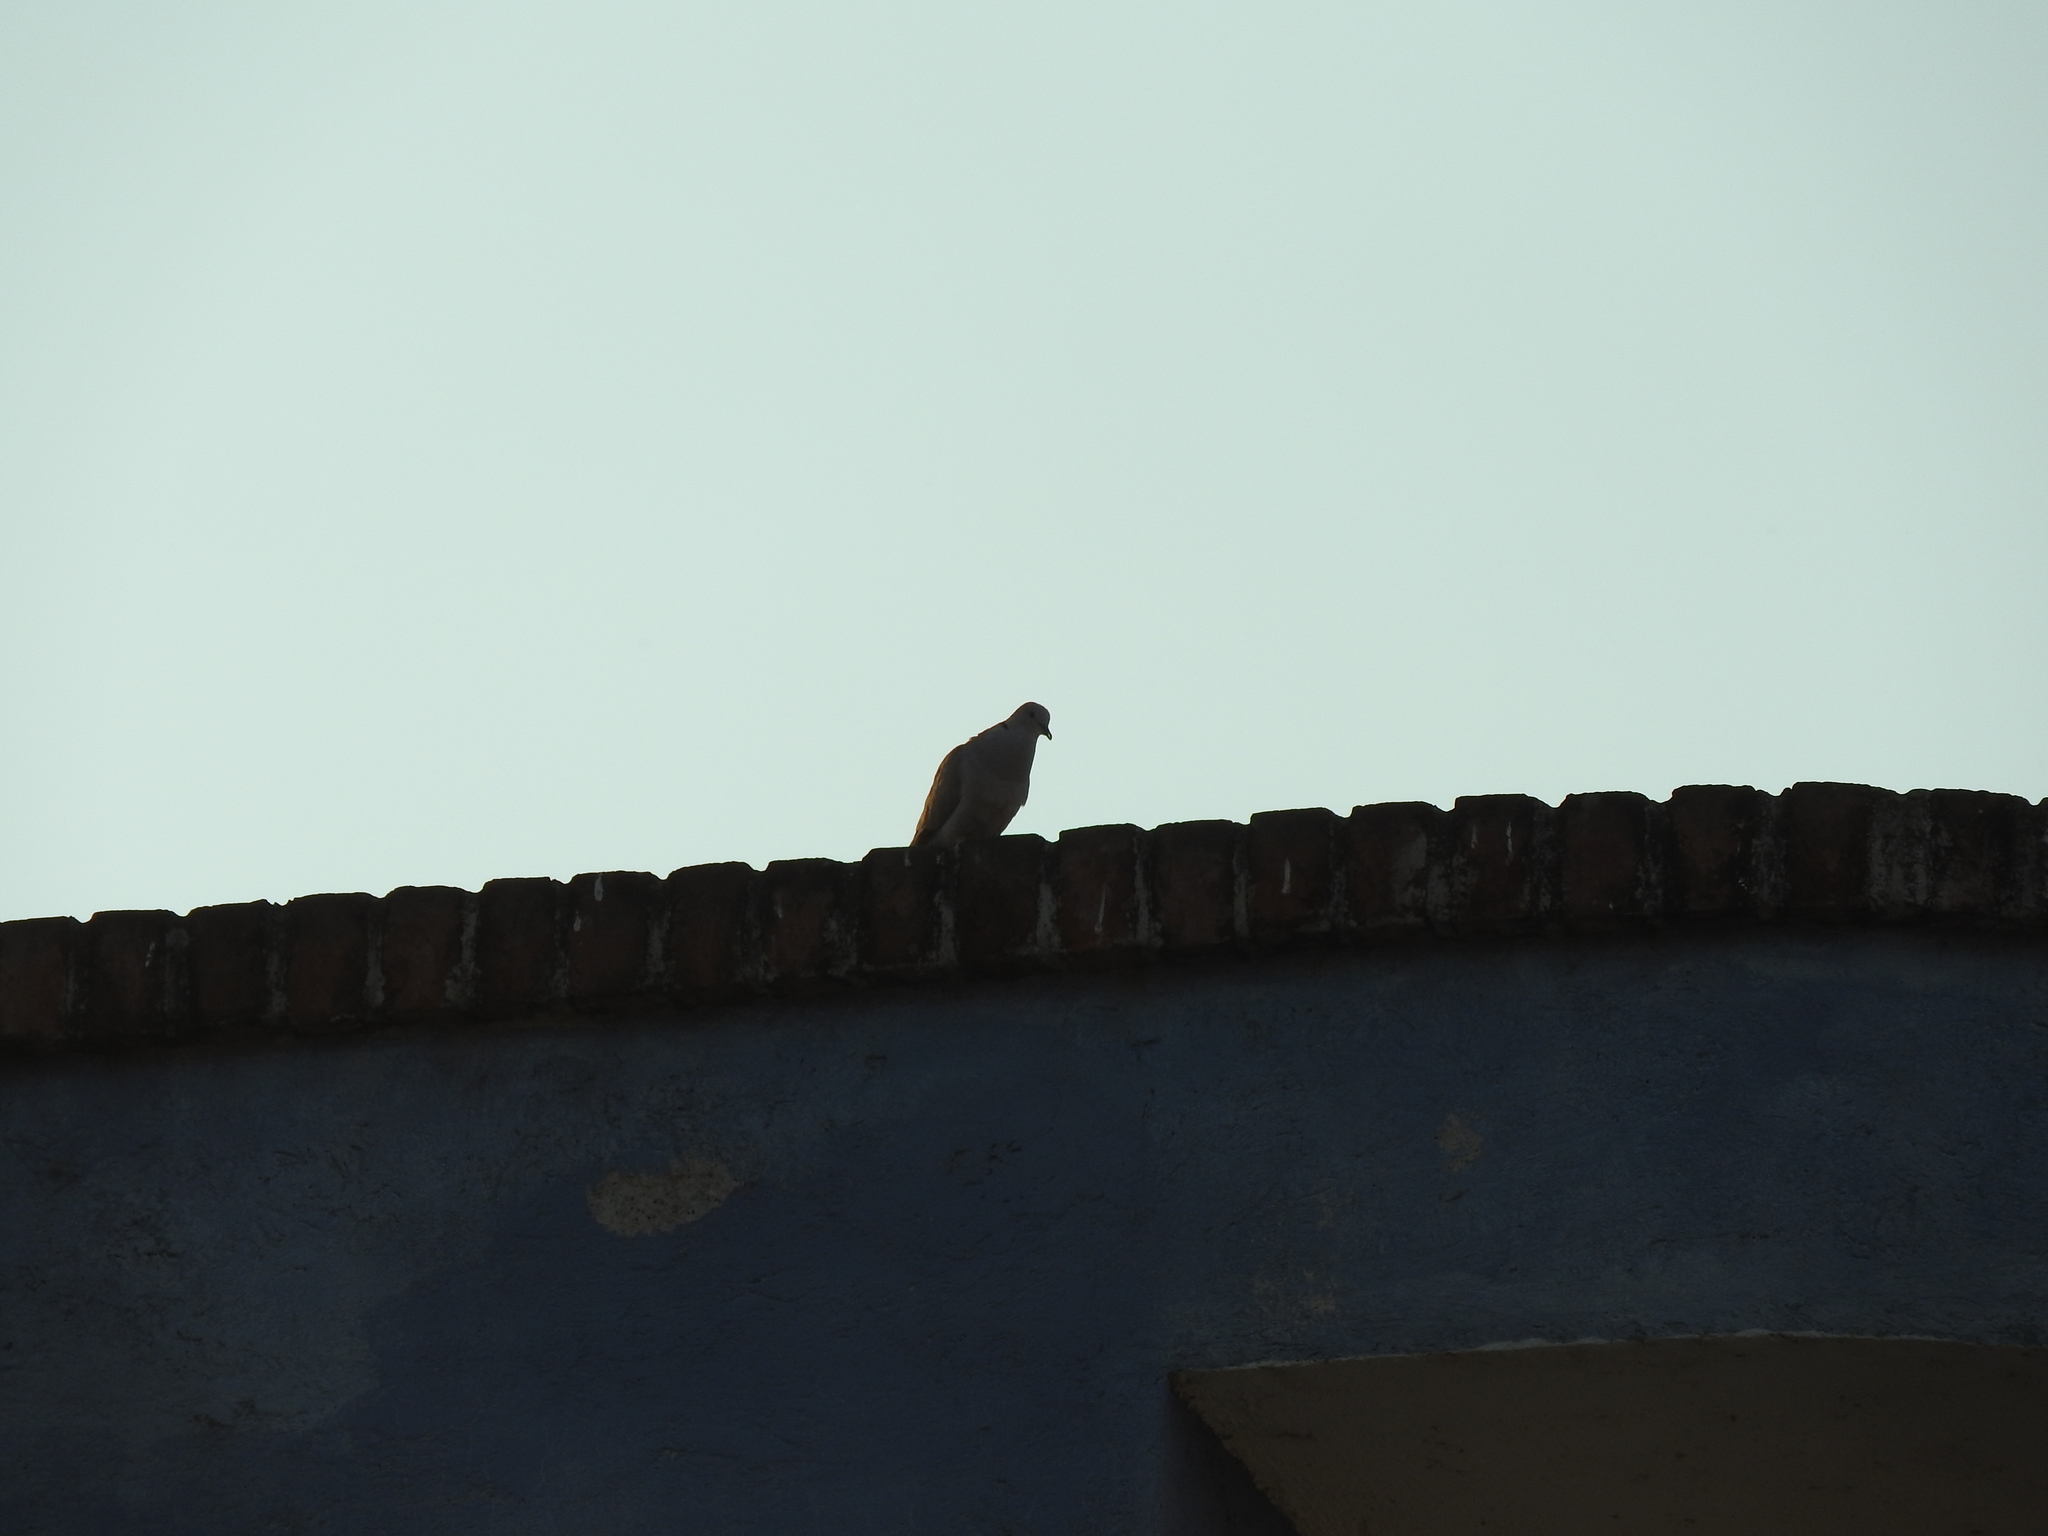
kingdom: Animalia
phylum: Chordata
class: Aves
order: Columbiformes
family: Columbidae
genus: Streptopelia
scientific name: Streptopelia decaocto
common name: Eurasian collared dove
